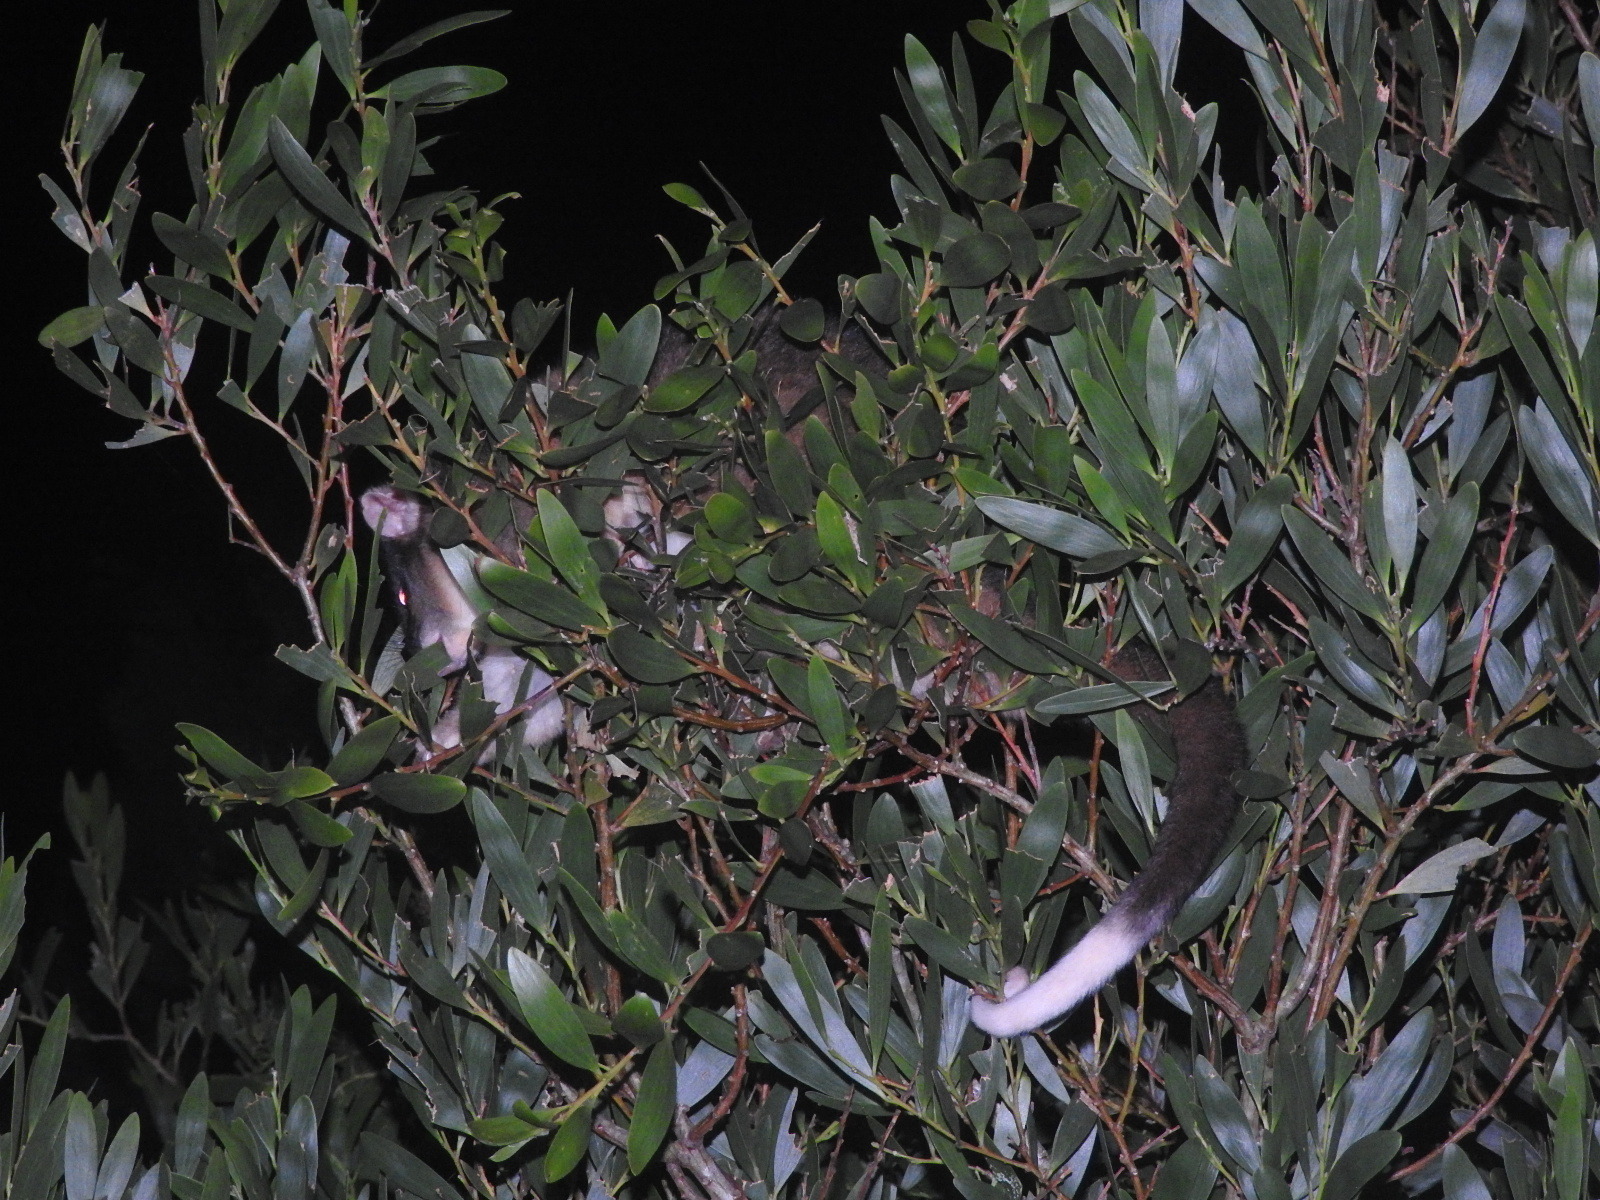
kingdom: Animalia
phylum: Chordata
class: Mammalia
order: Diprotodontia
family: Pseudocheiridae
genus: Pseudocheirus
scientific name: Pseudocheirus peregrinus
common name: Common ringtail possum
